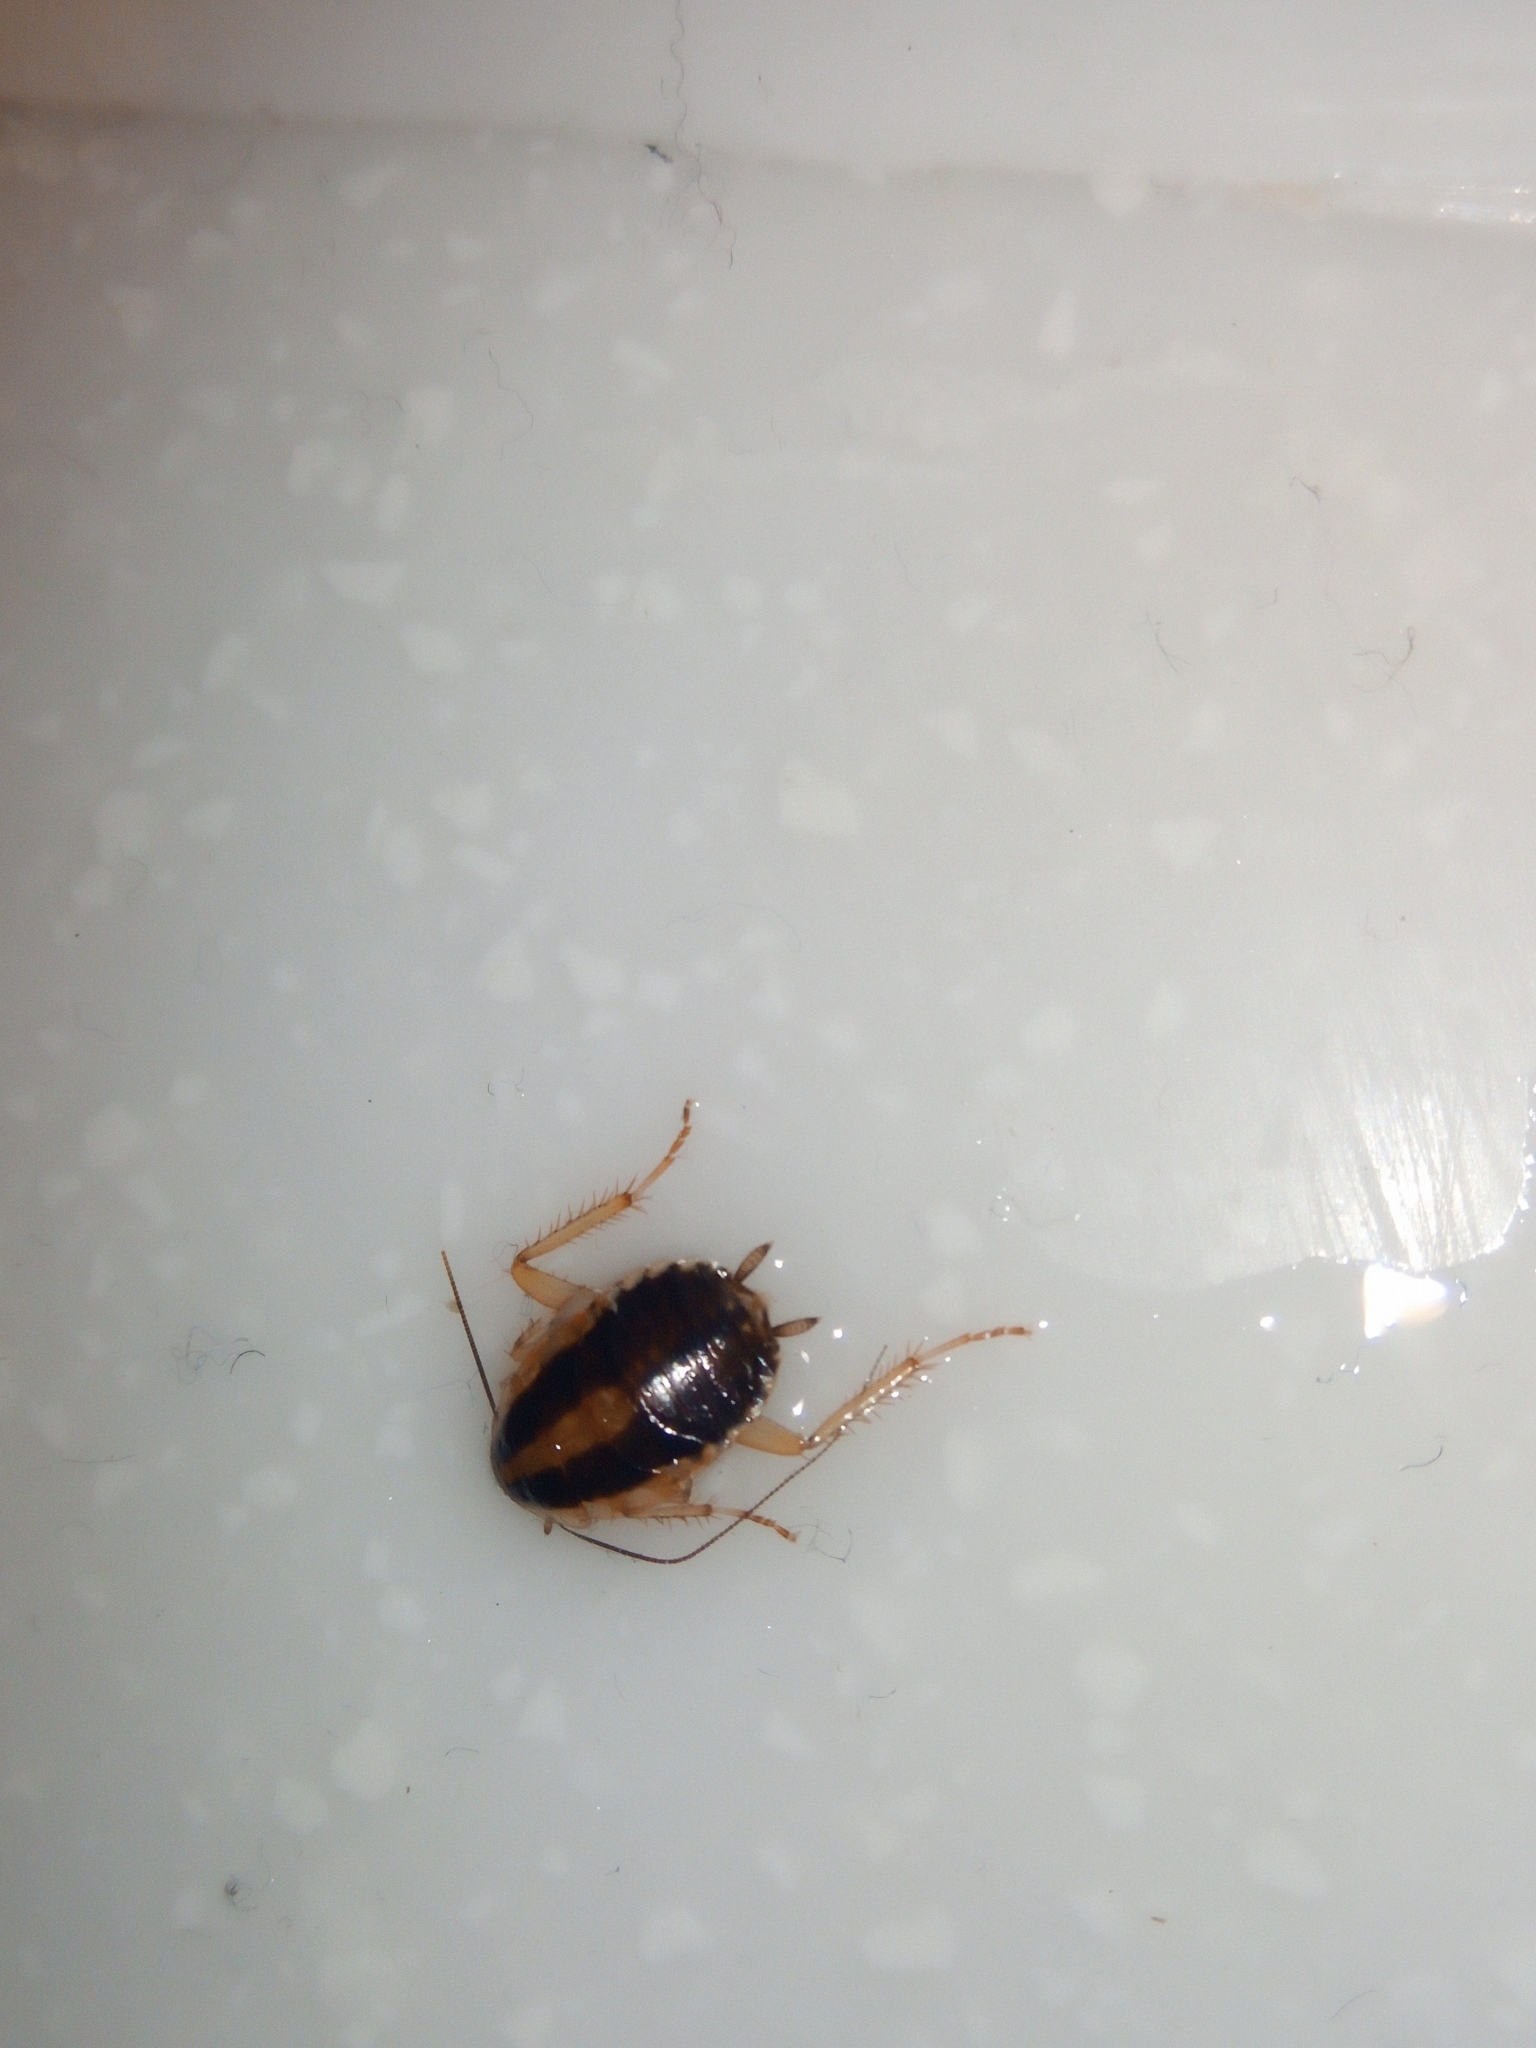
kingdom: Animalia
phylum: Arthropoda
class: Insecta
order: Blattodea
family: Ectobiidae
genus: Blattella
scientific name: Blattella germanica
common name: German cockroach
